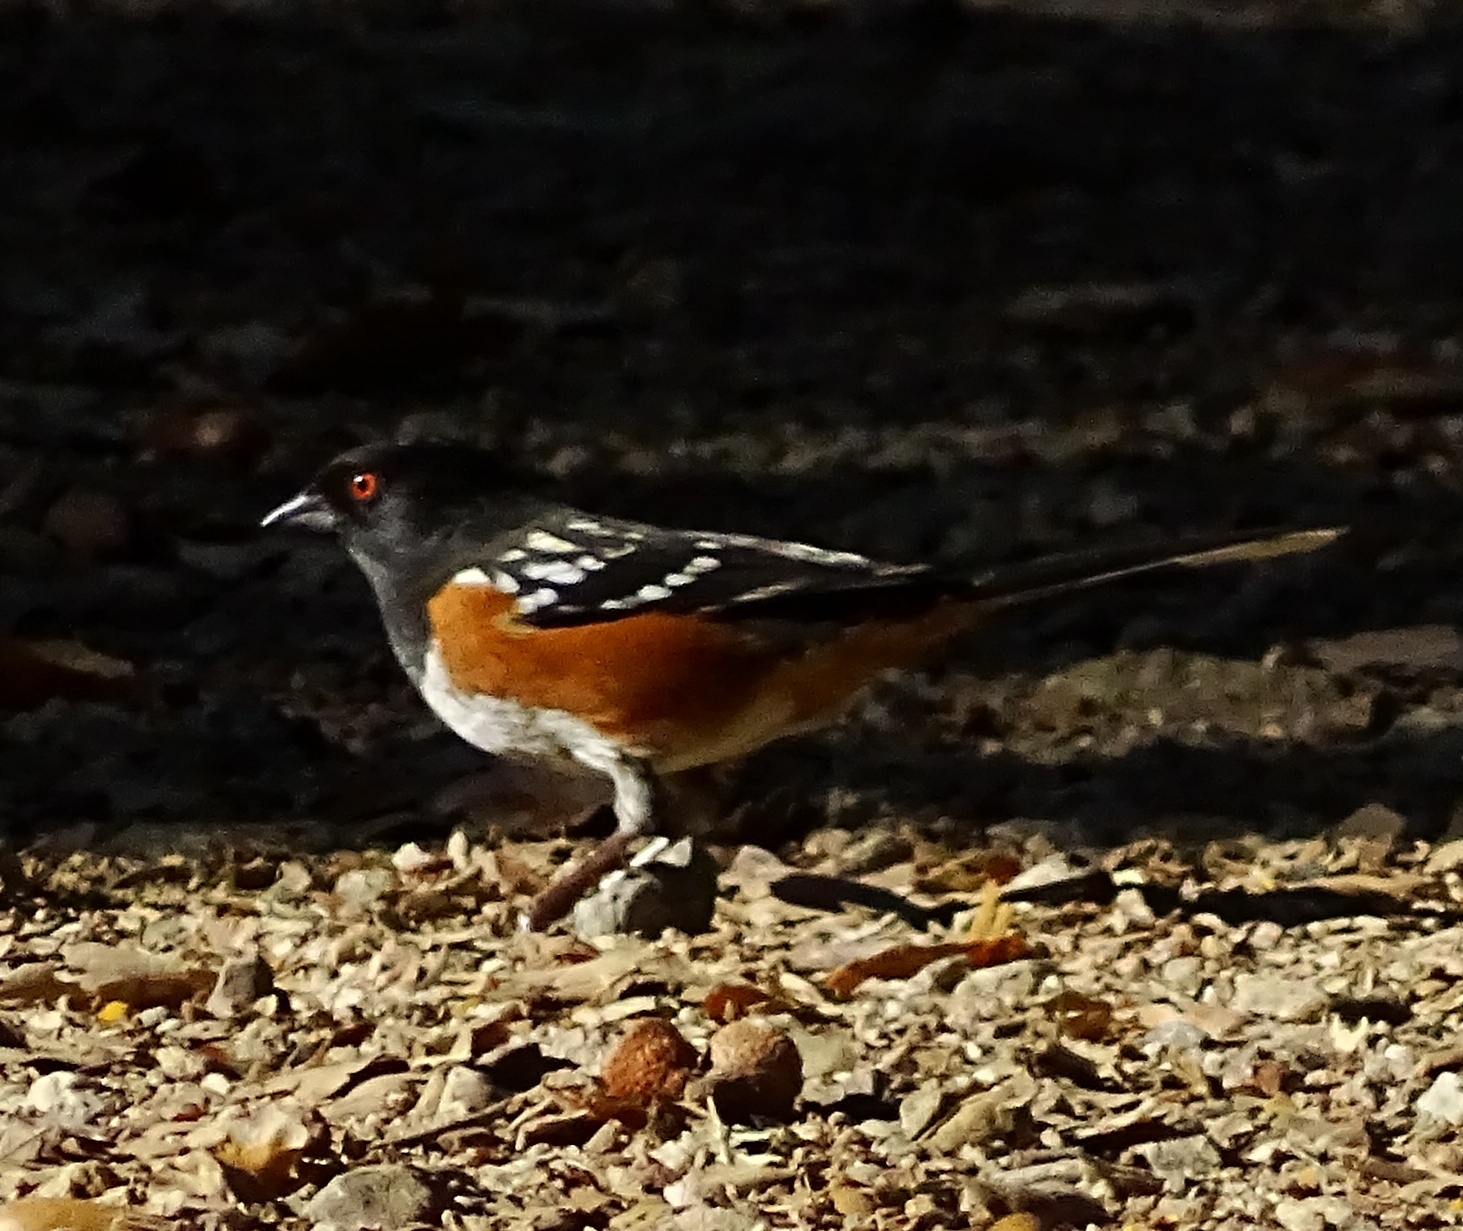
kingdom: Animalia
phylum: Chordata
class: Aves
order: Passeriformes
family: Passerellidae
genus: Pipilo
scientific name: Pipilo maculatus
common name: Spotted towhee
